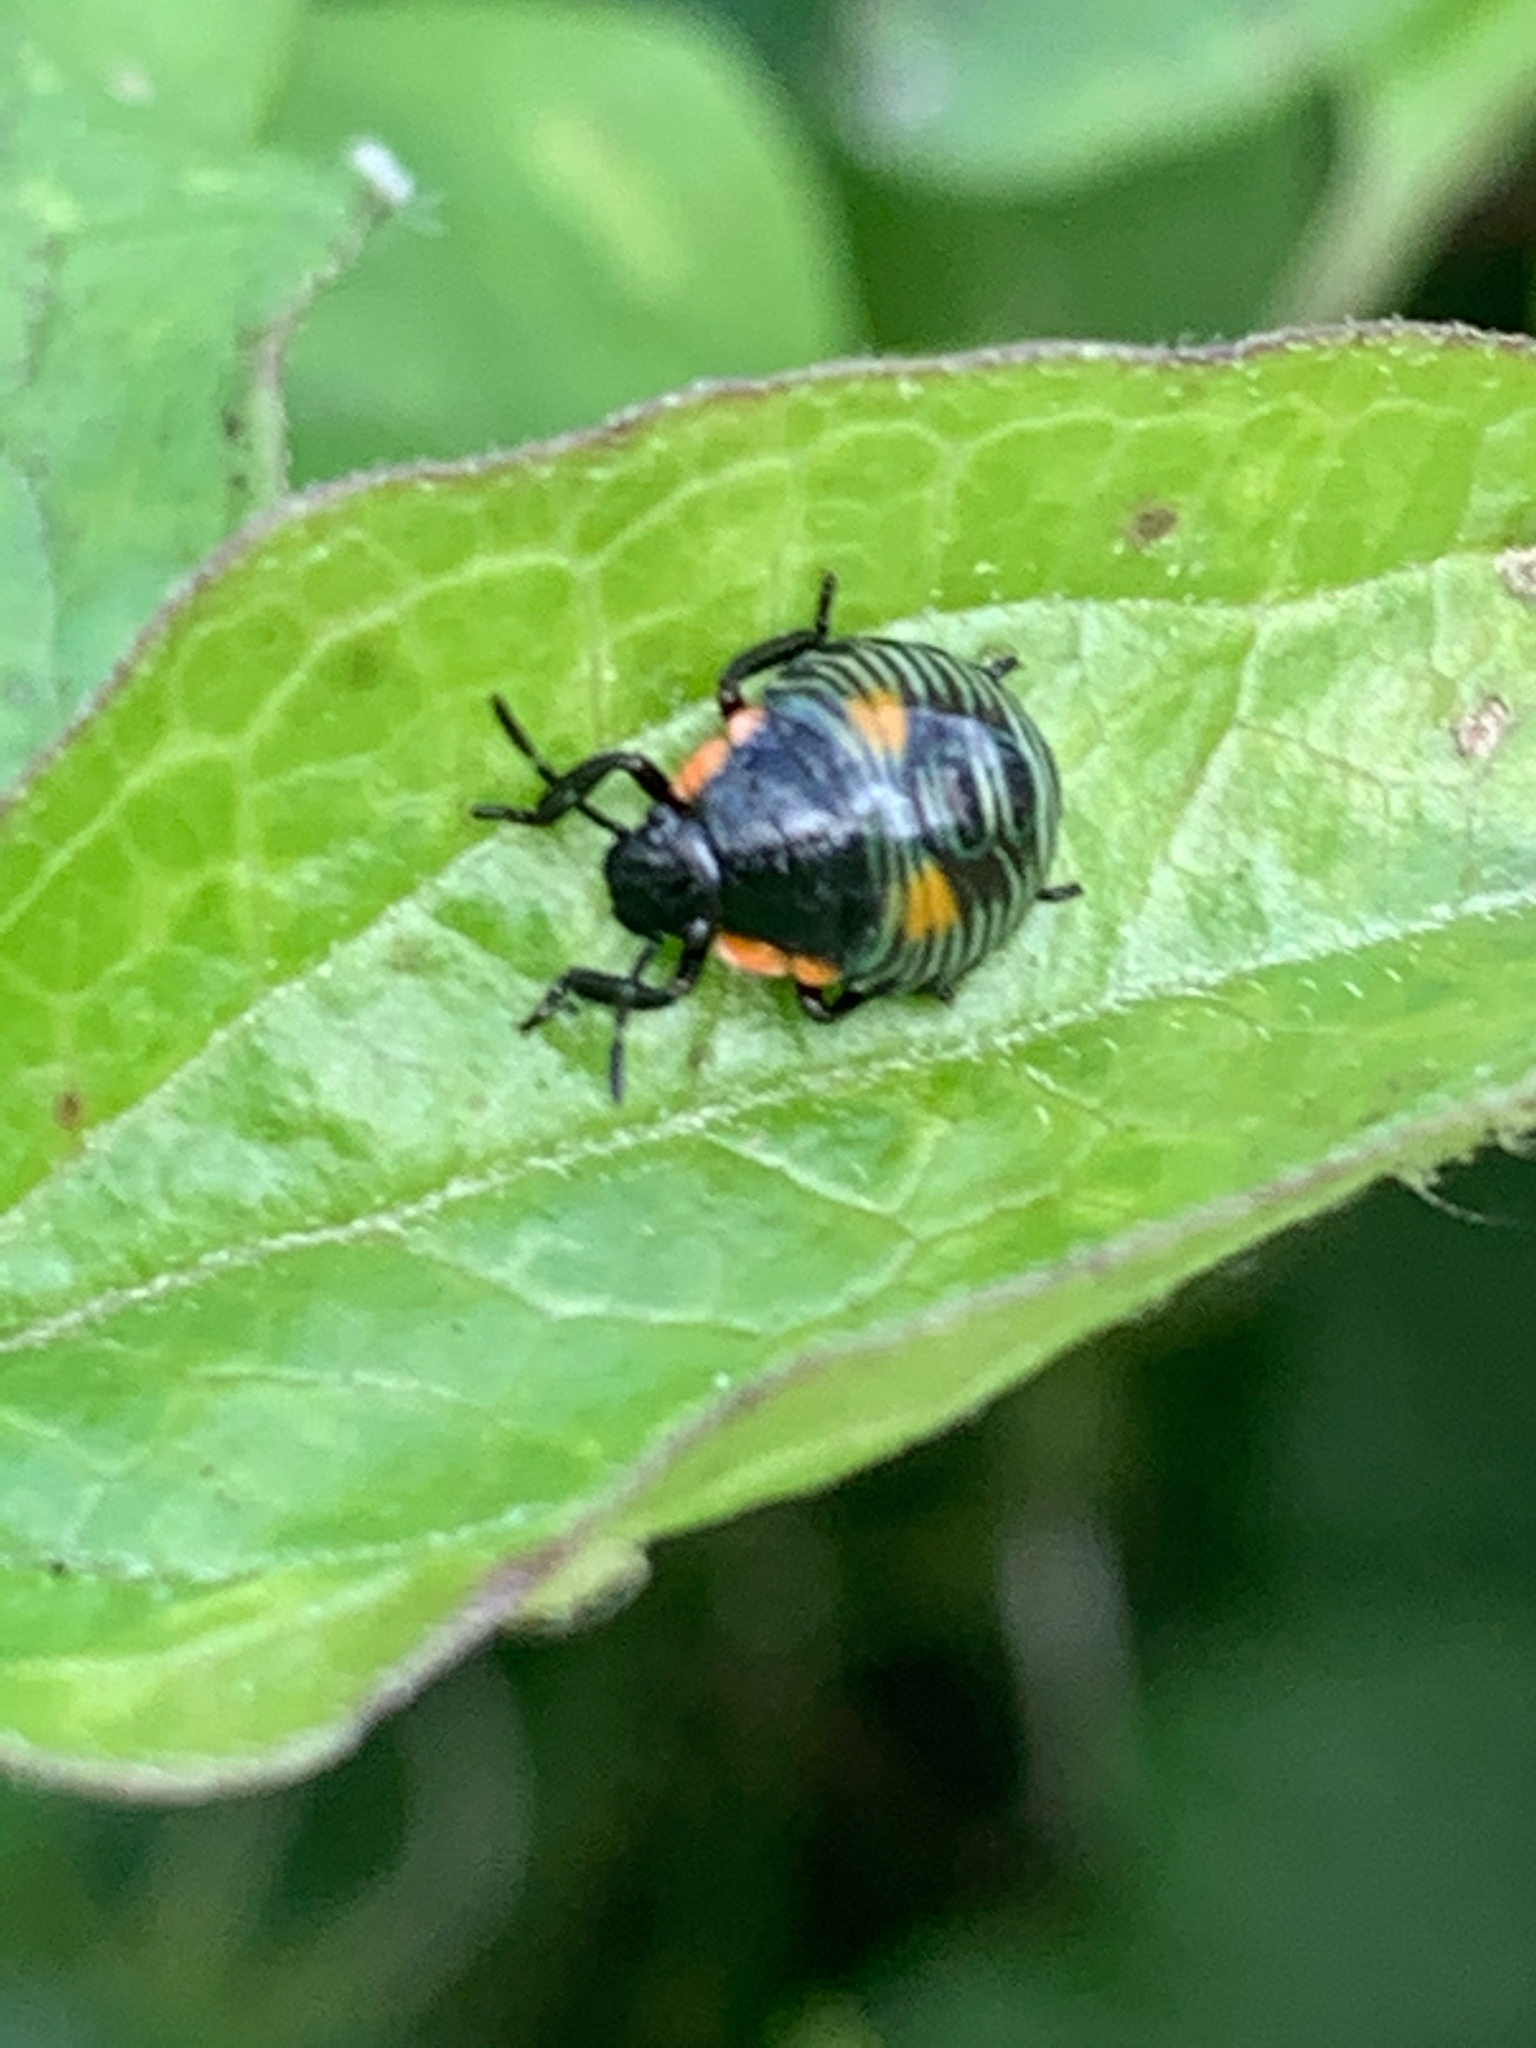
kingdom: Animalia
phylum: Arthropoda
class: Insecta
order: Hemiptera
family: Pentatomidae
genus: Chinavia
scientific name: Chinavia hilaris
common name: Green stink bug
